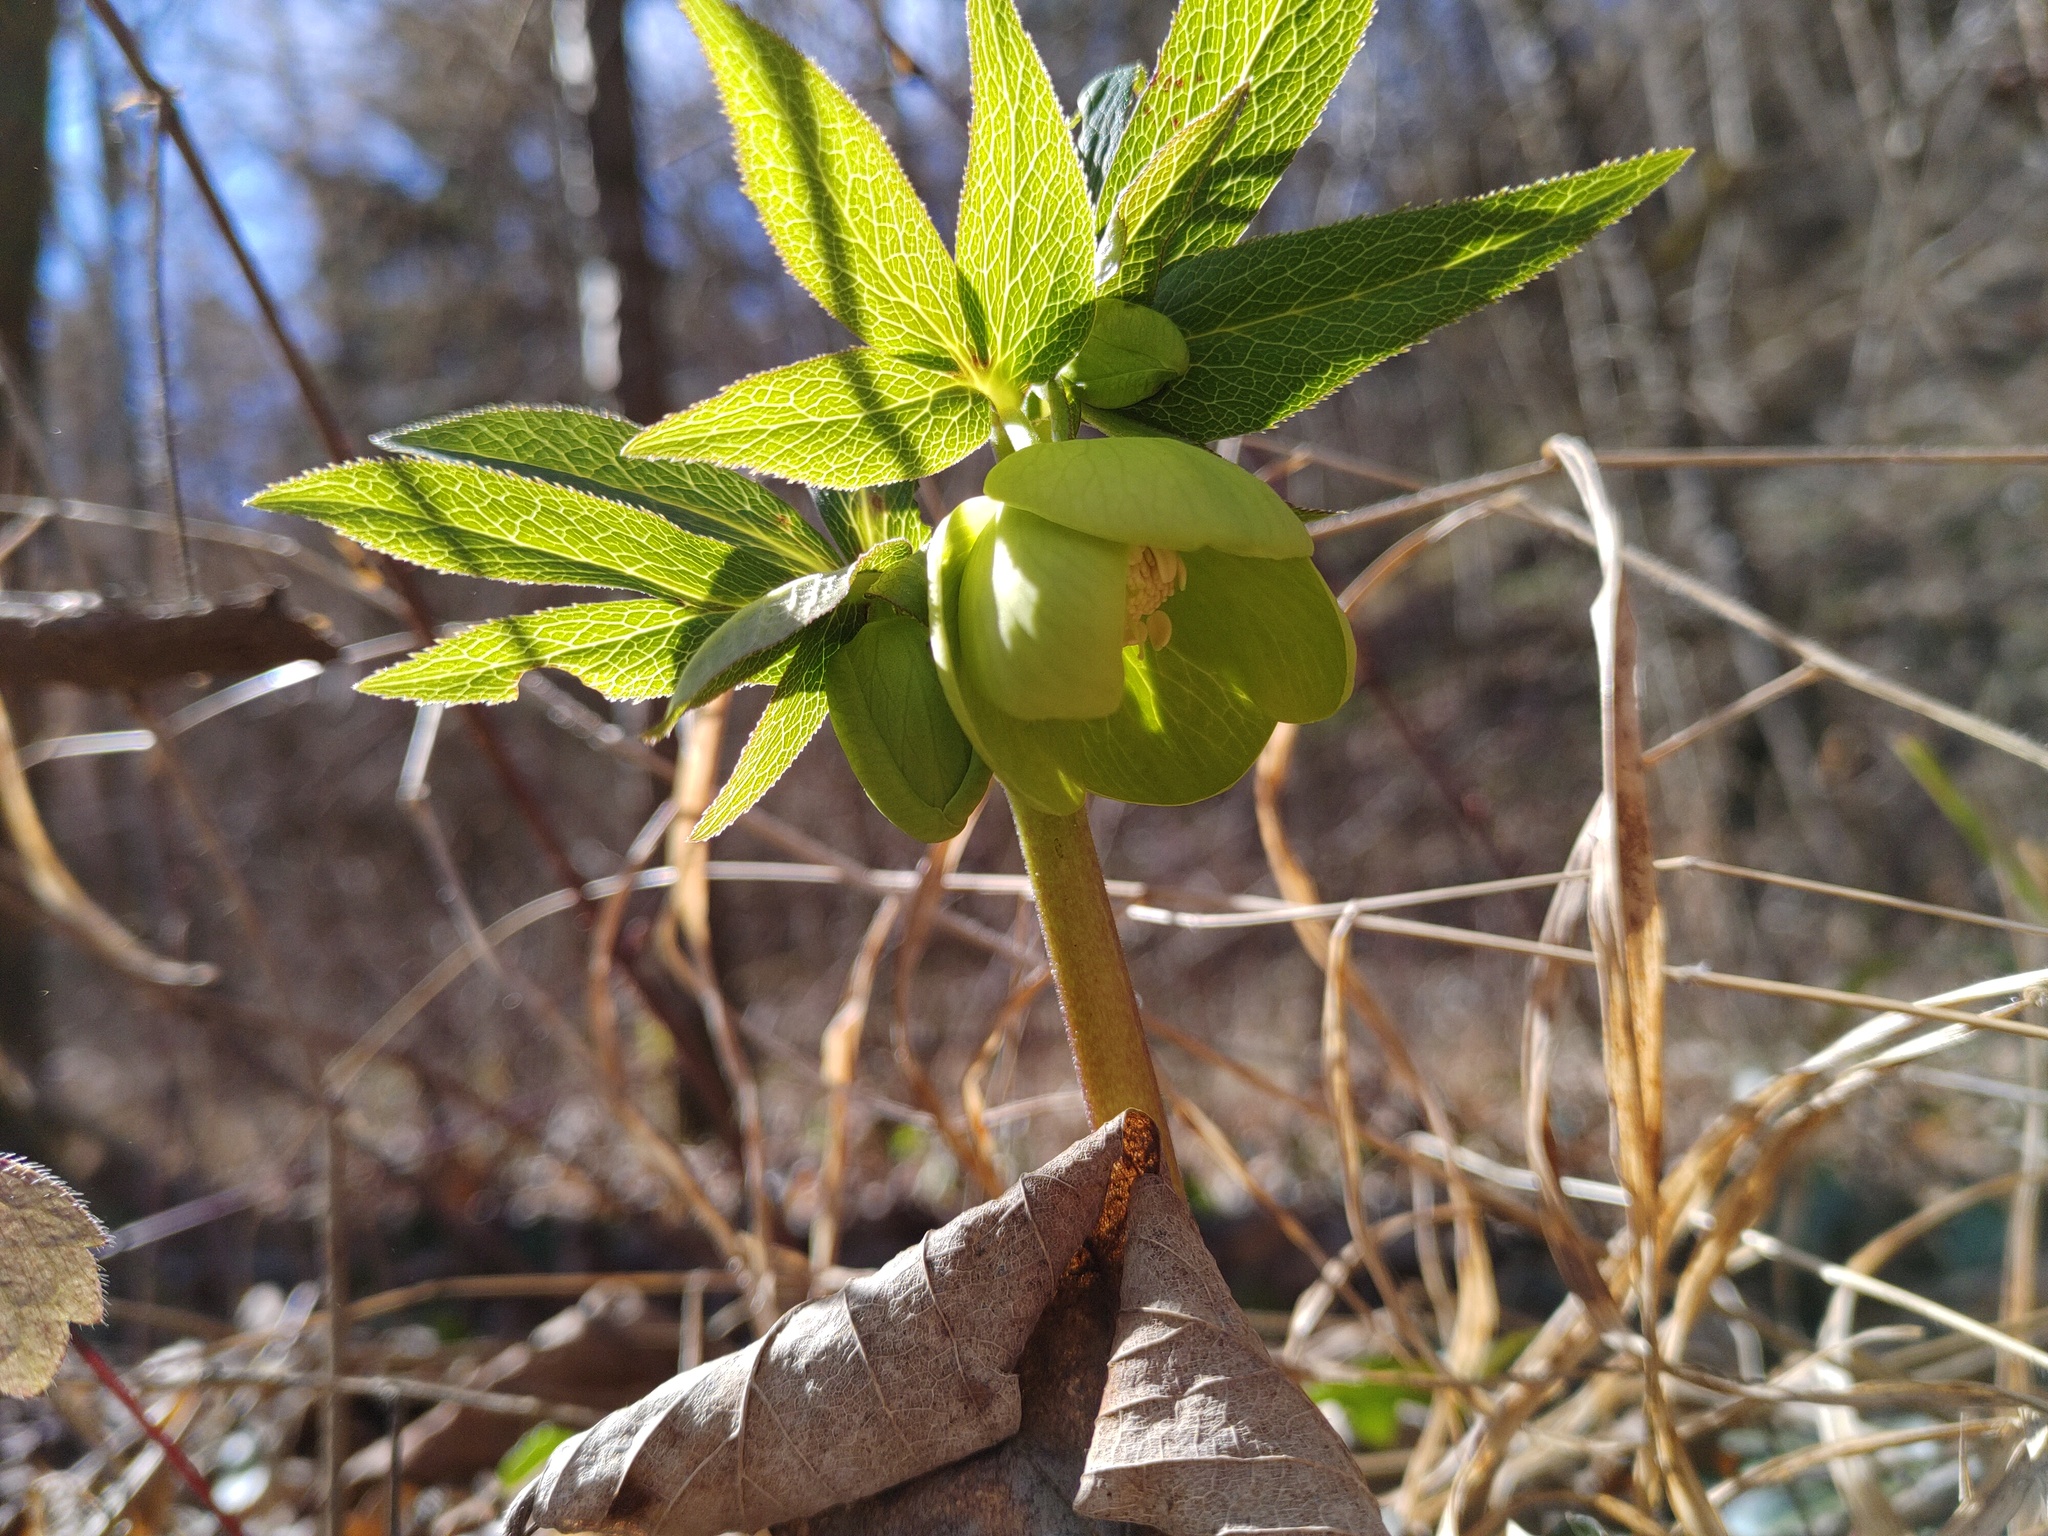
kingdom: Plantae
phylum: Tracheophyta
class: Magnoliopsida
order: Ranunculales
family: Ranunculaceae
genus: Helleborus
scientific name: Helleborus viridis
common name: Green hellebore
